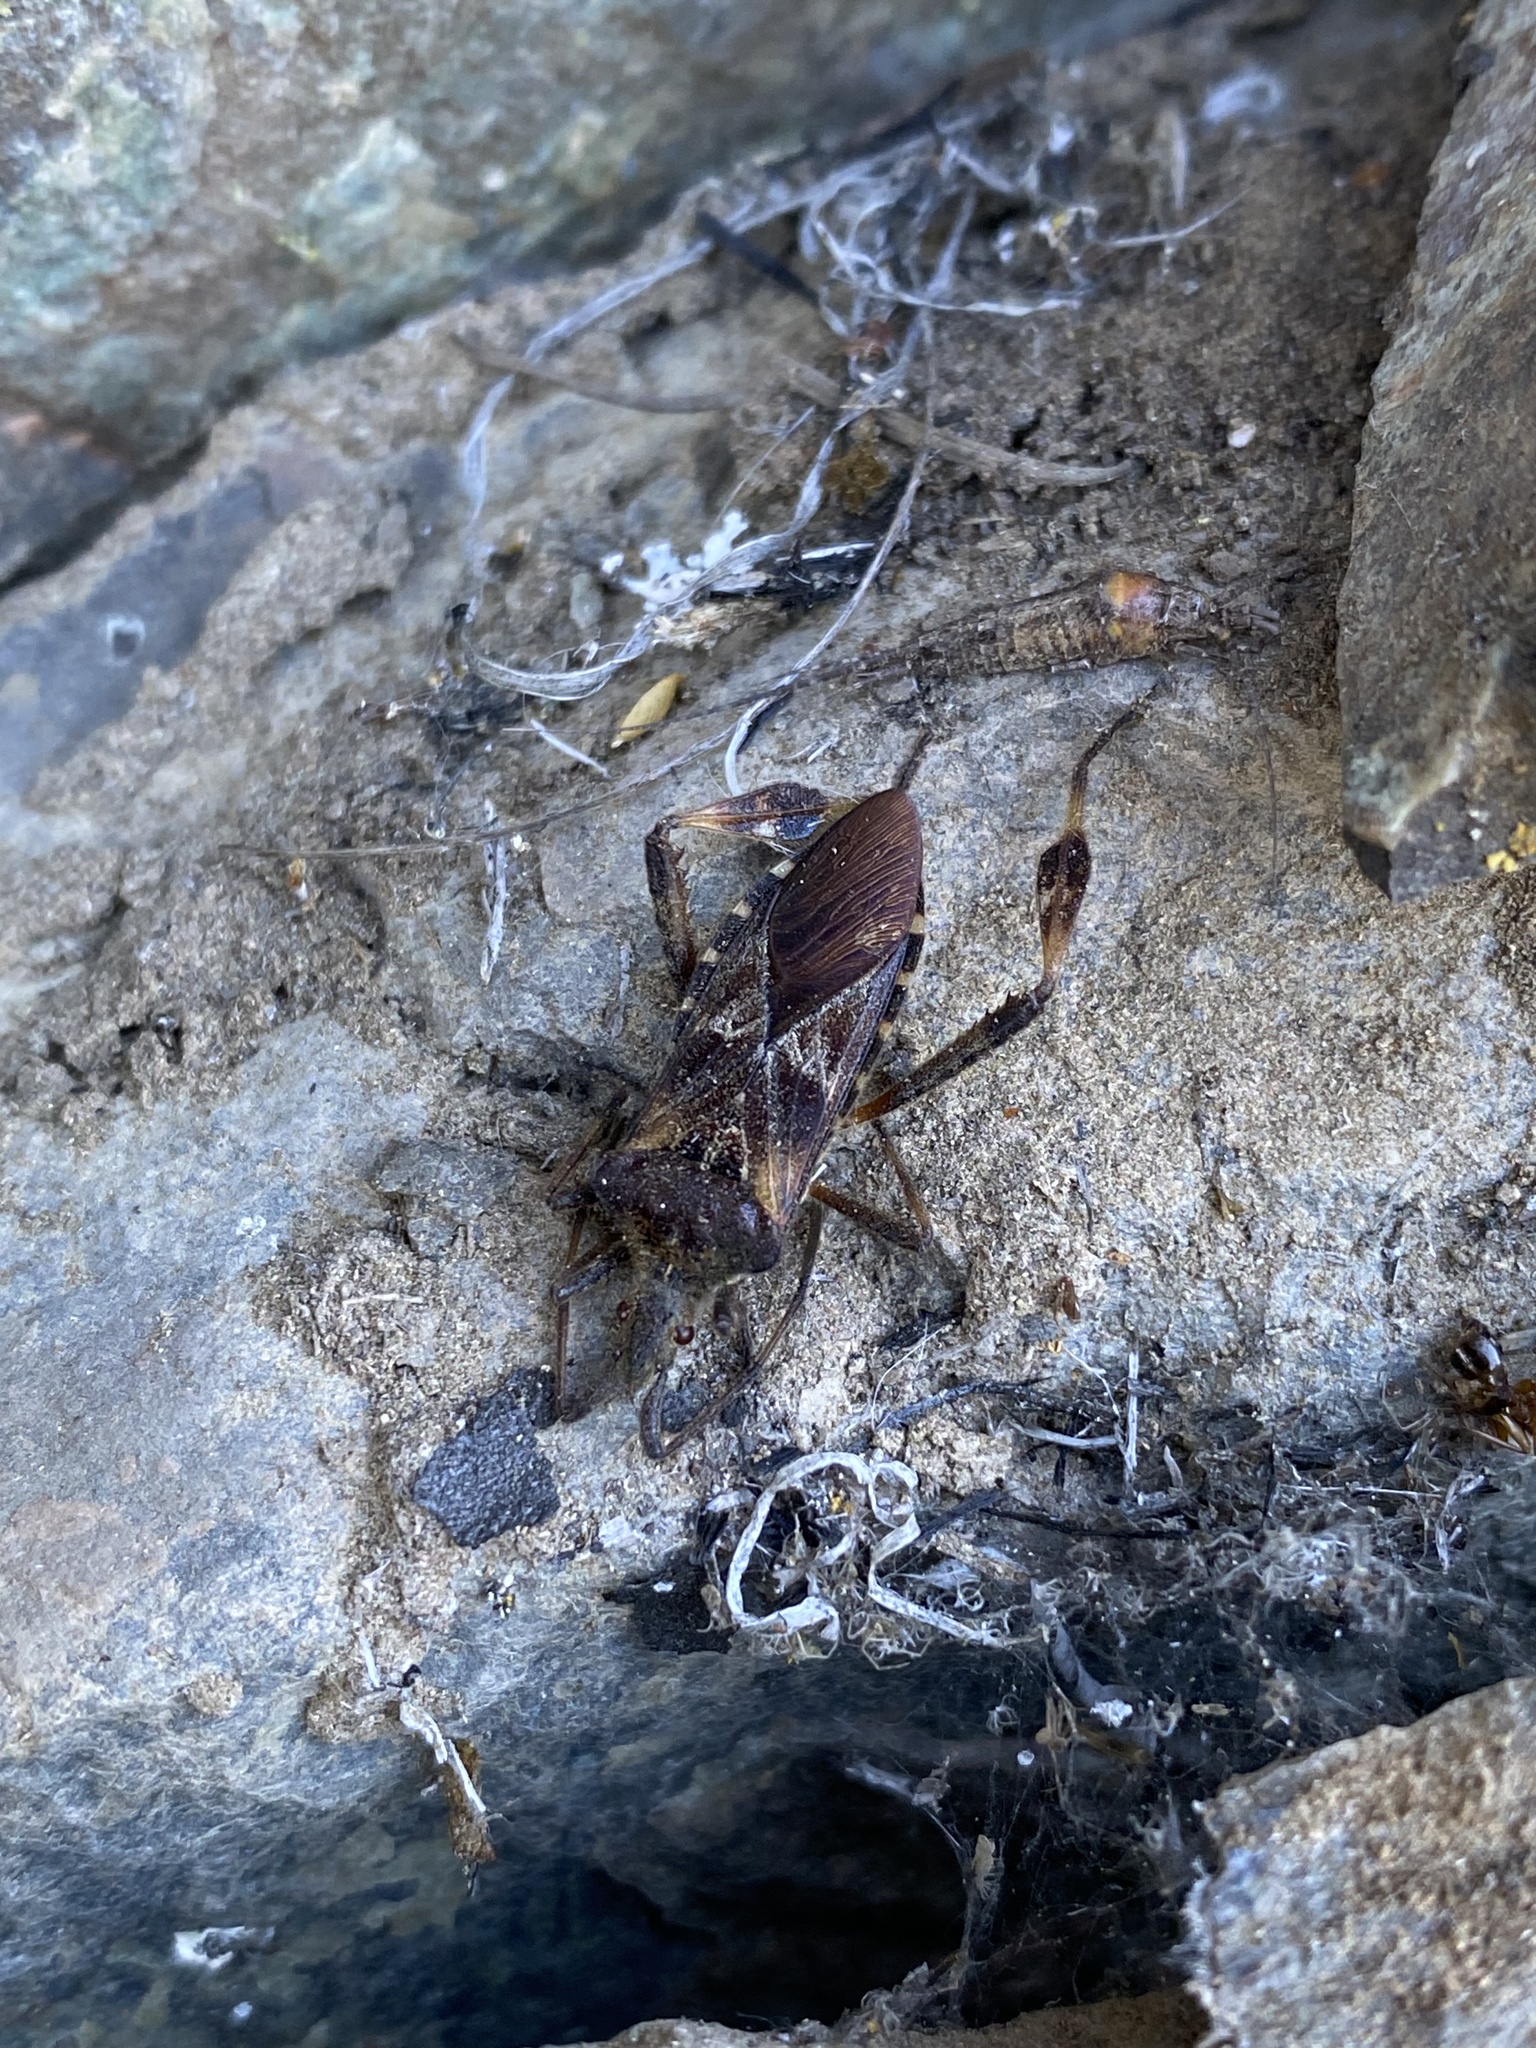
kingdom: Animalia
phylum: Arthropoda
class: Insecta
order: Hemiptera
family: Coreidae
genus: Leptoglossus
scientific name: Leptoglossus occidentalis
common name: Western conifer-seed bug
